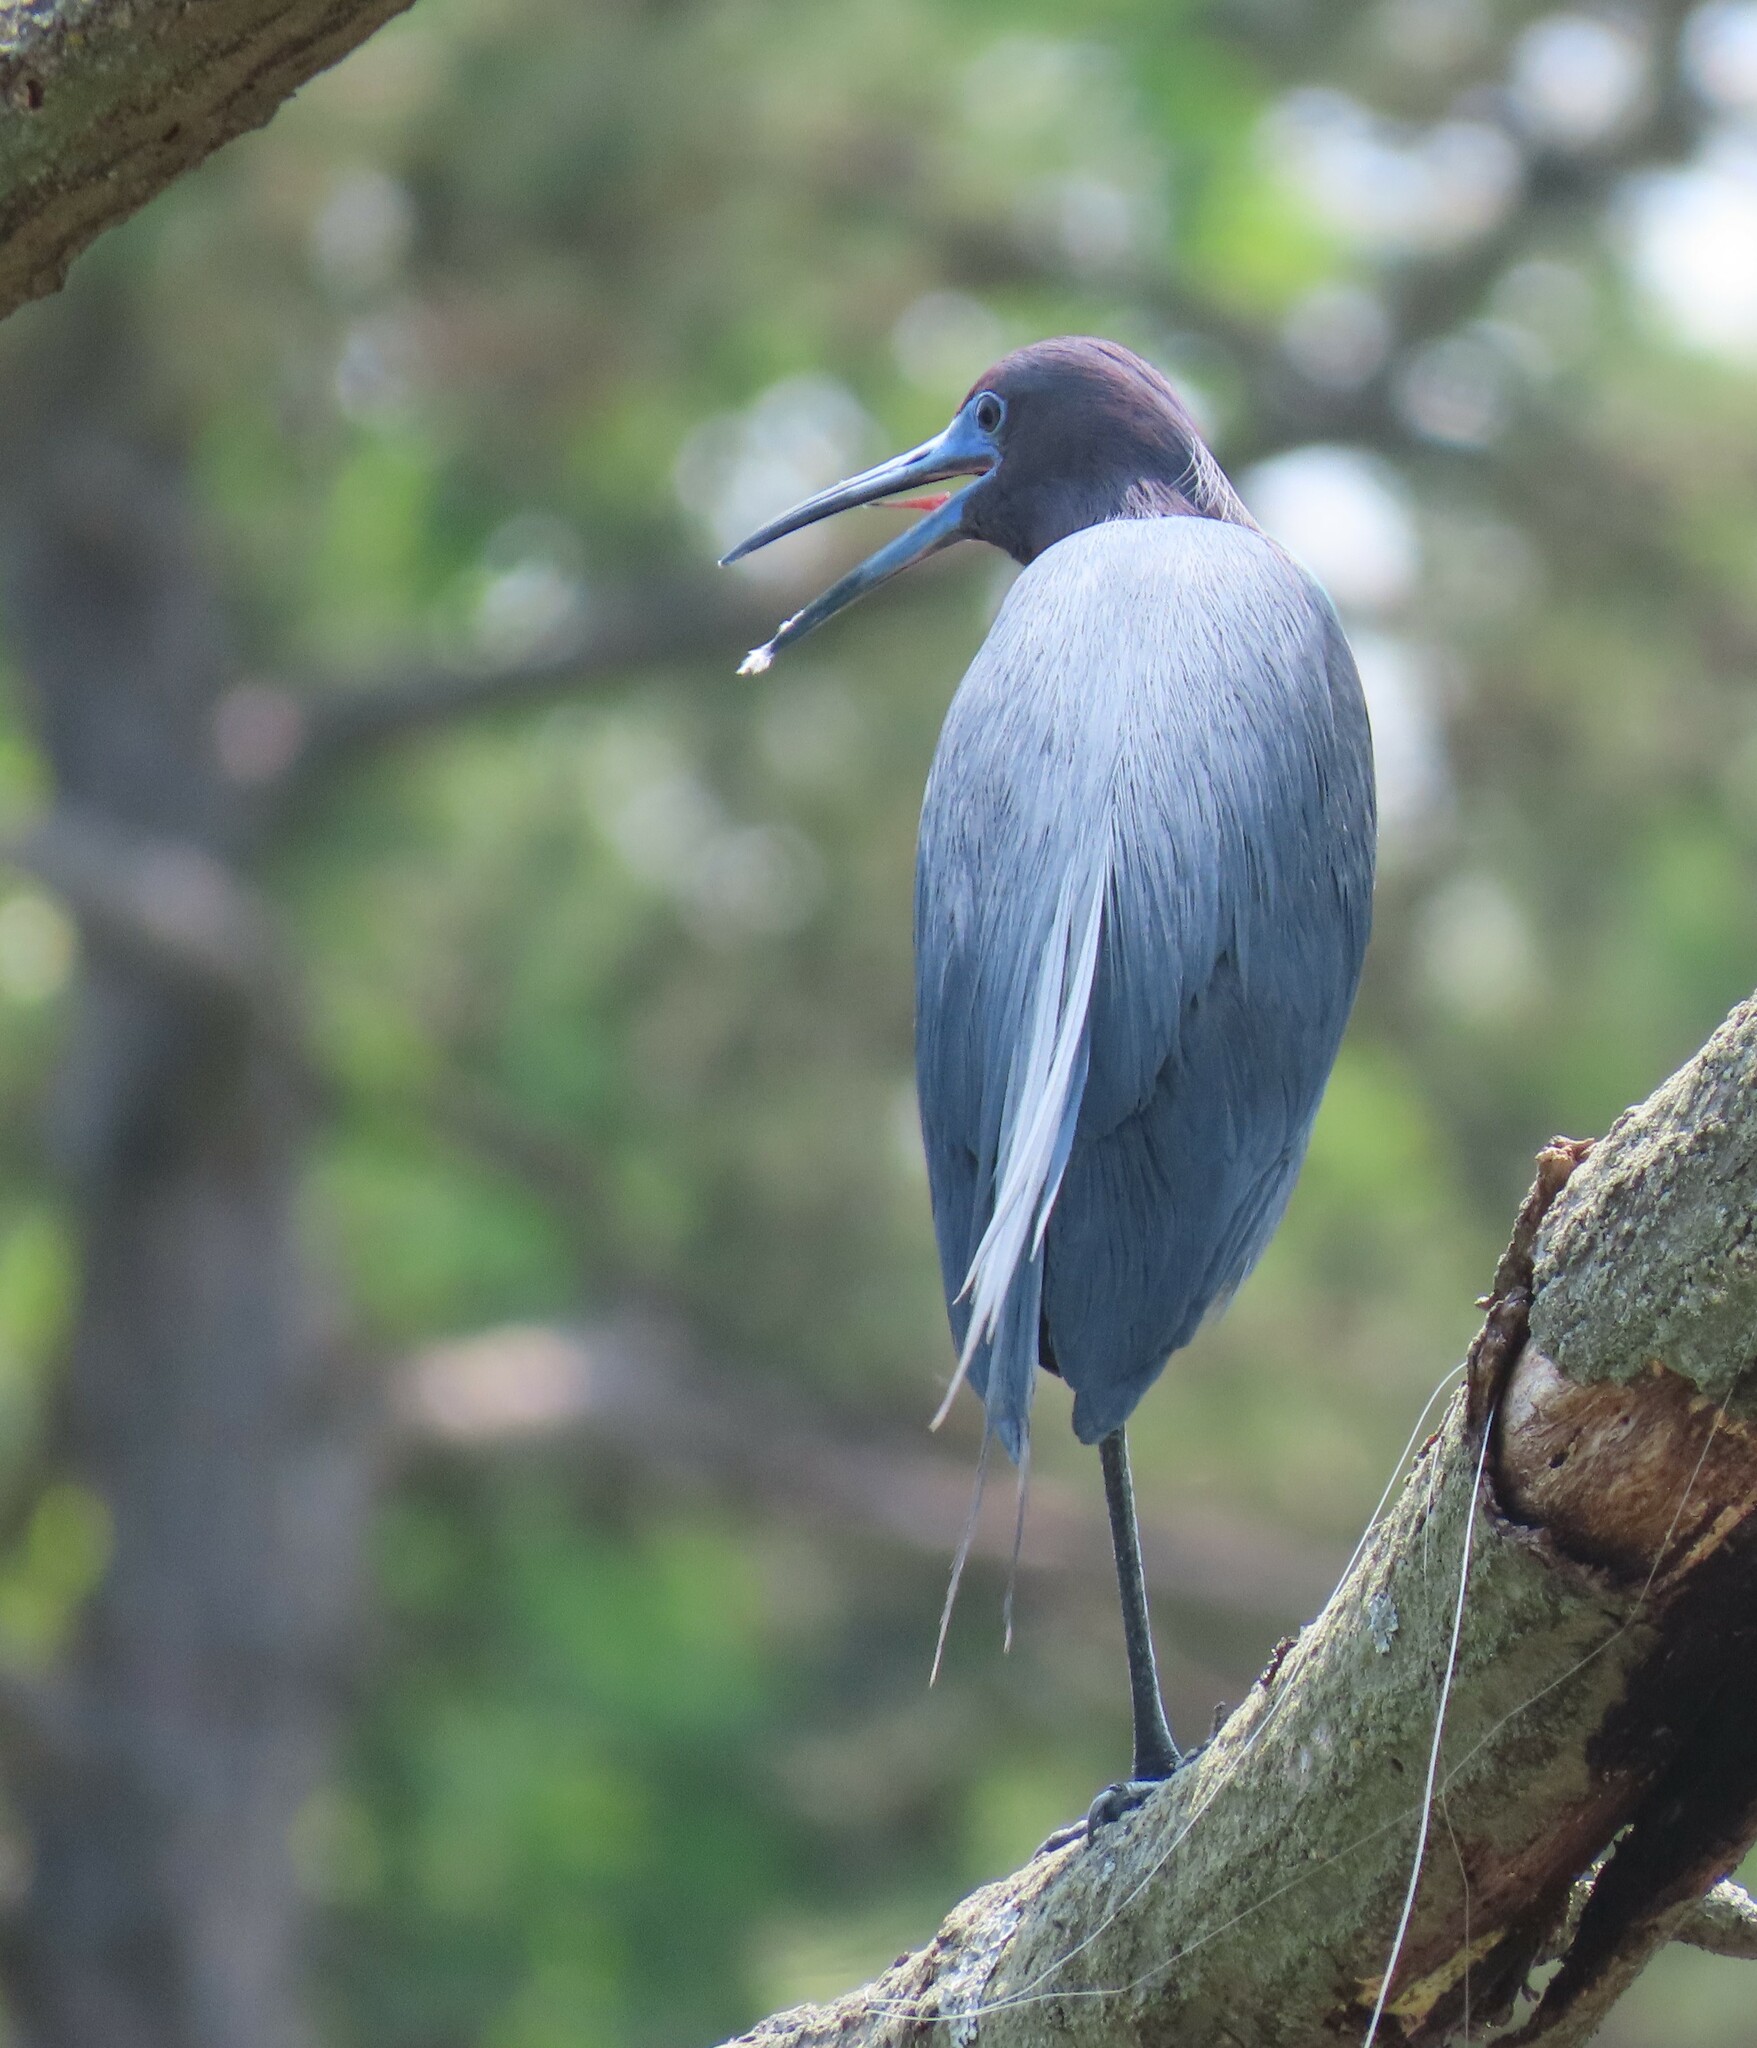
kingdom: Animalia
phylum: Chordata
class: Aves
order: Pelecaniformes
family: Ardeidae
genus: Egretta
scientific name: Egretta caerulea
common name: Little blue heron
